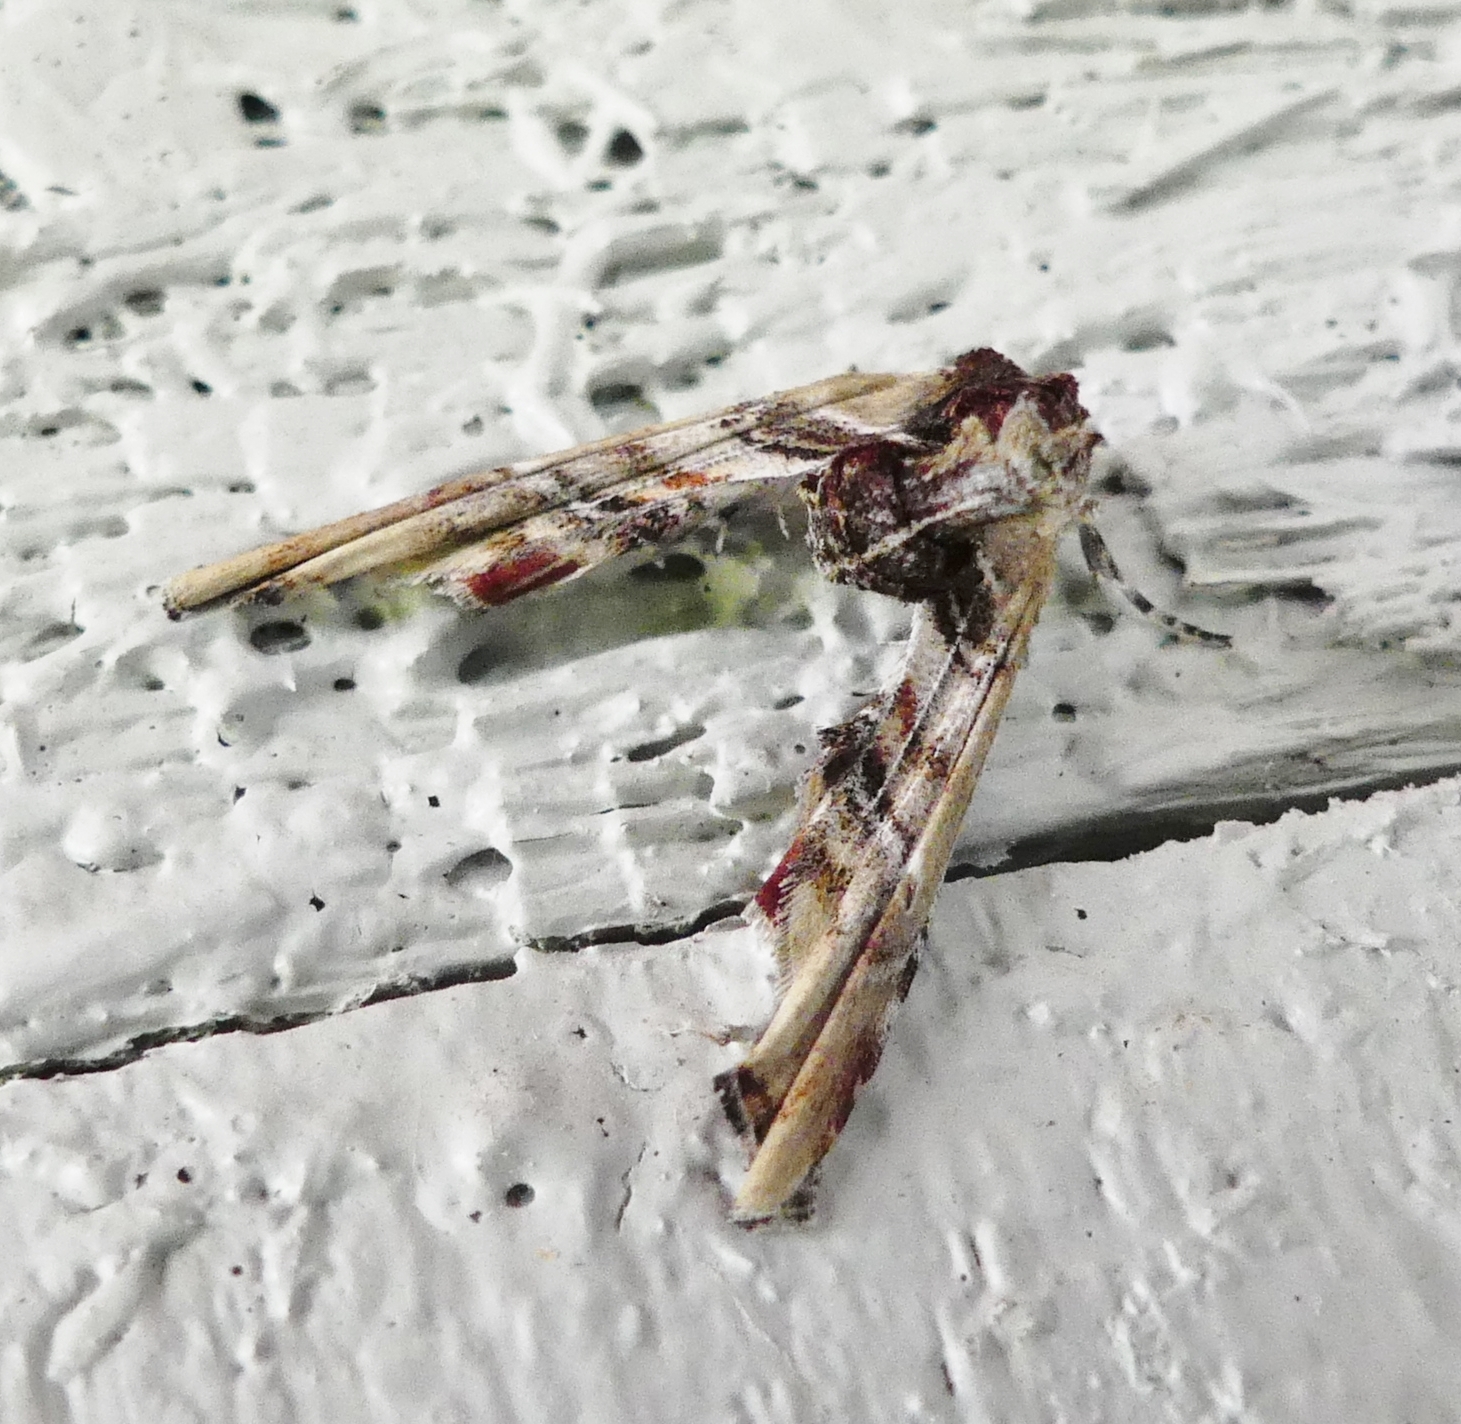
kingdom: Animalia
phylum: Arthropoda
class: Insecta
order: Lepidoptera
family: Euteliidae
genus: Marathyssa
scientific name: Marathyssa basalis
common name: Light marathyssa moth
